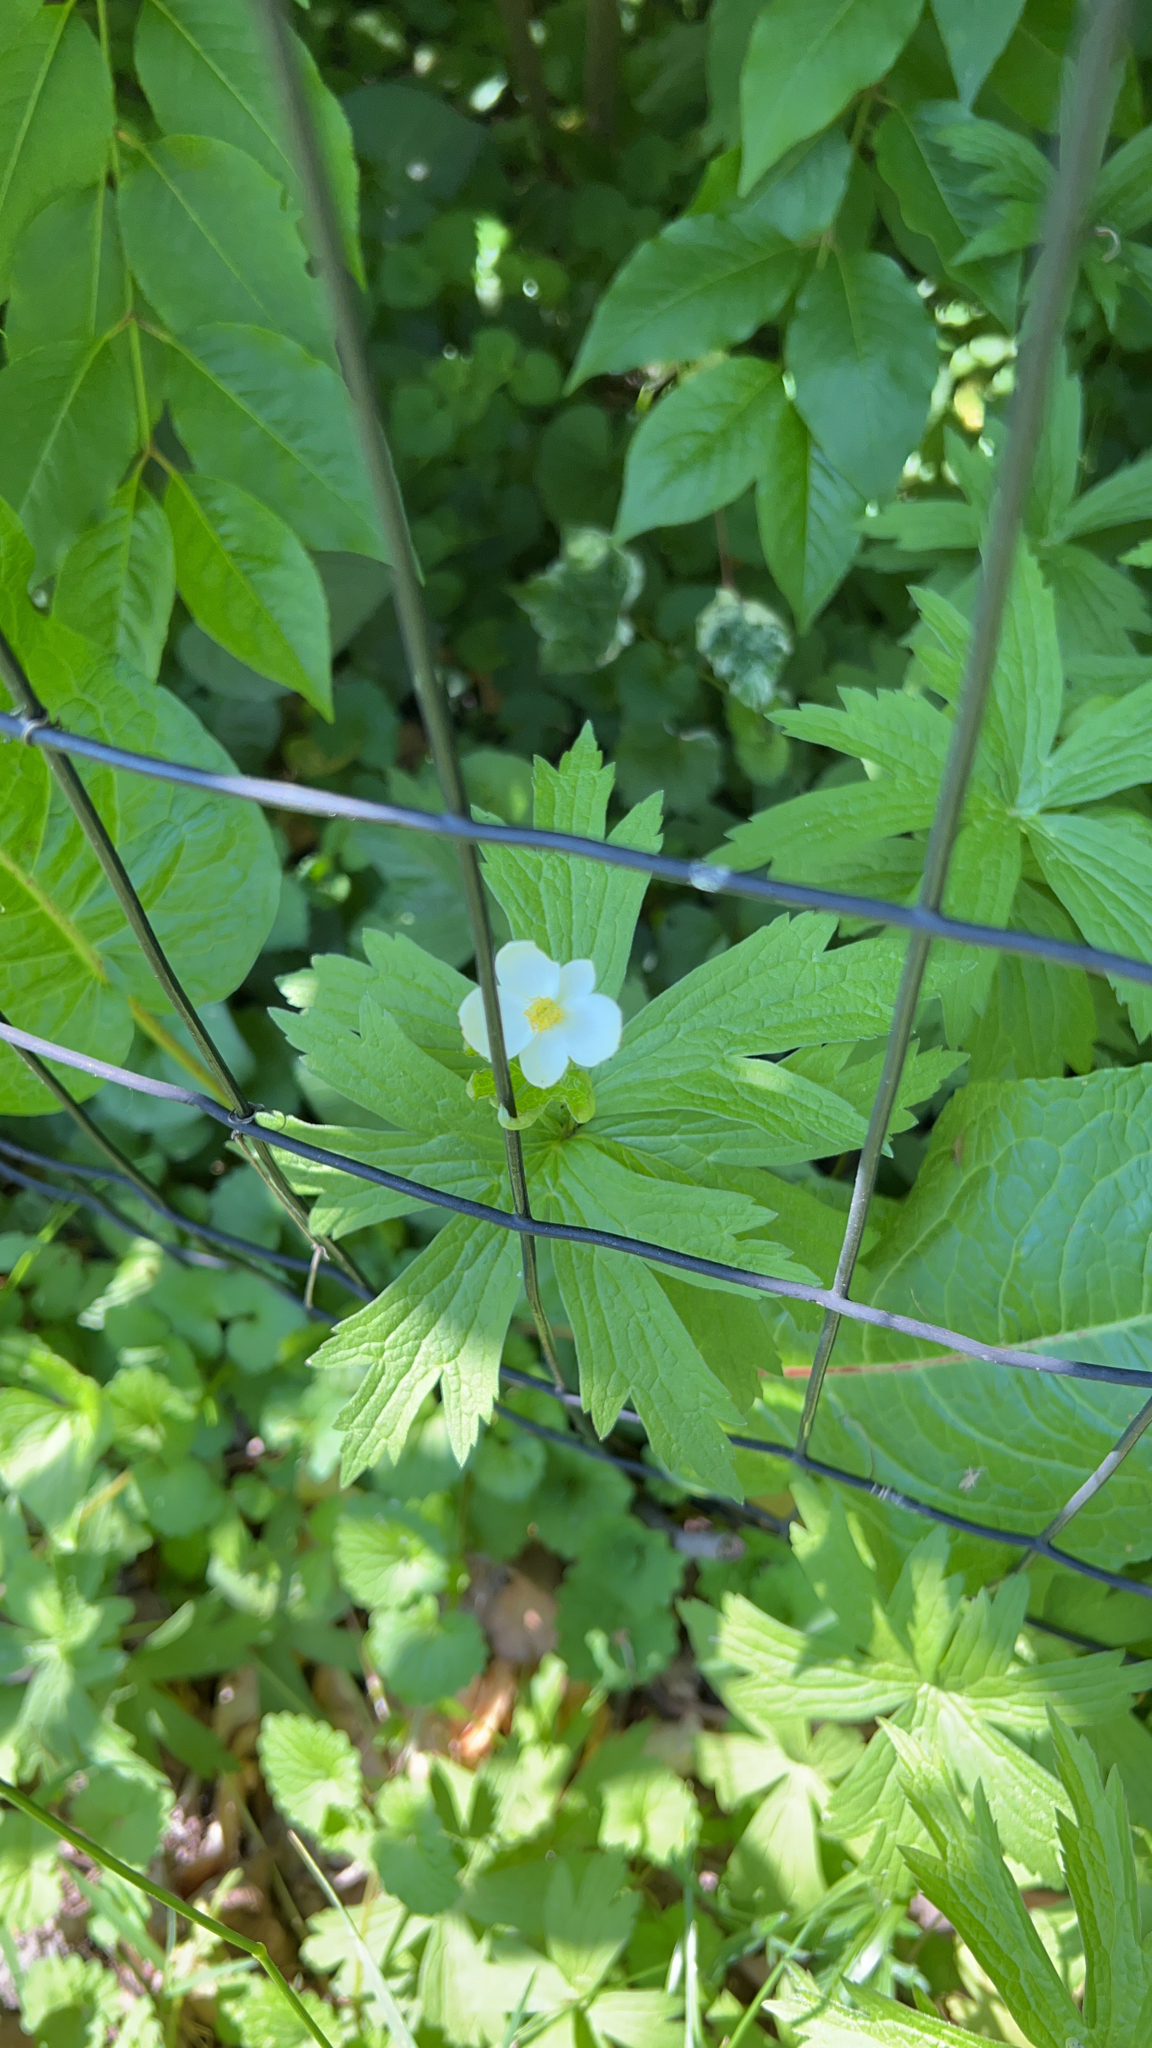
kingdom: Plantae
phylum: Tracheophyta
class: Magnoliopsida
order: Ranunculales
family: Ranunculaceae
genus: Anemonastrum
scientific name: Anemonastrum canadense
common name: Canada anemone
